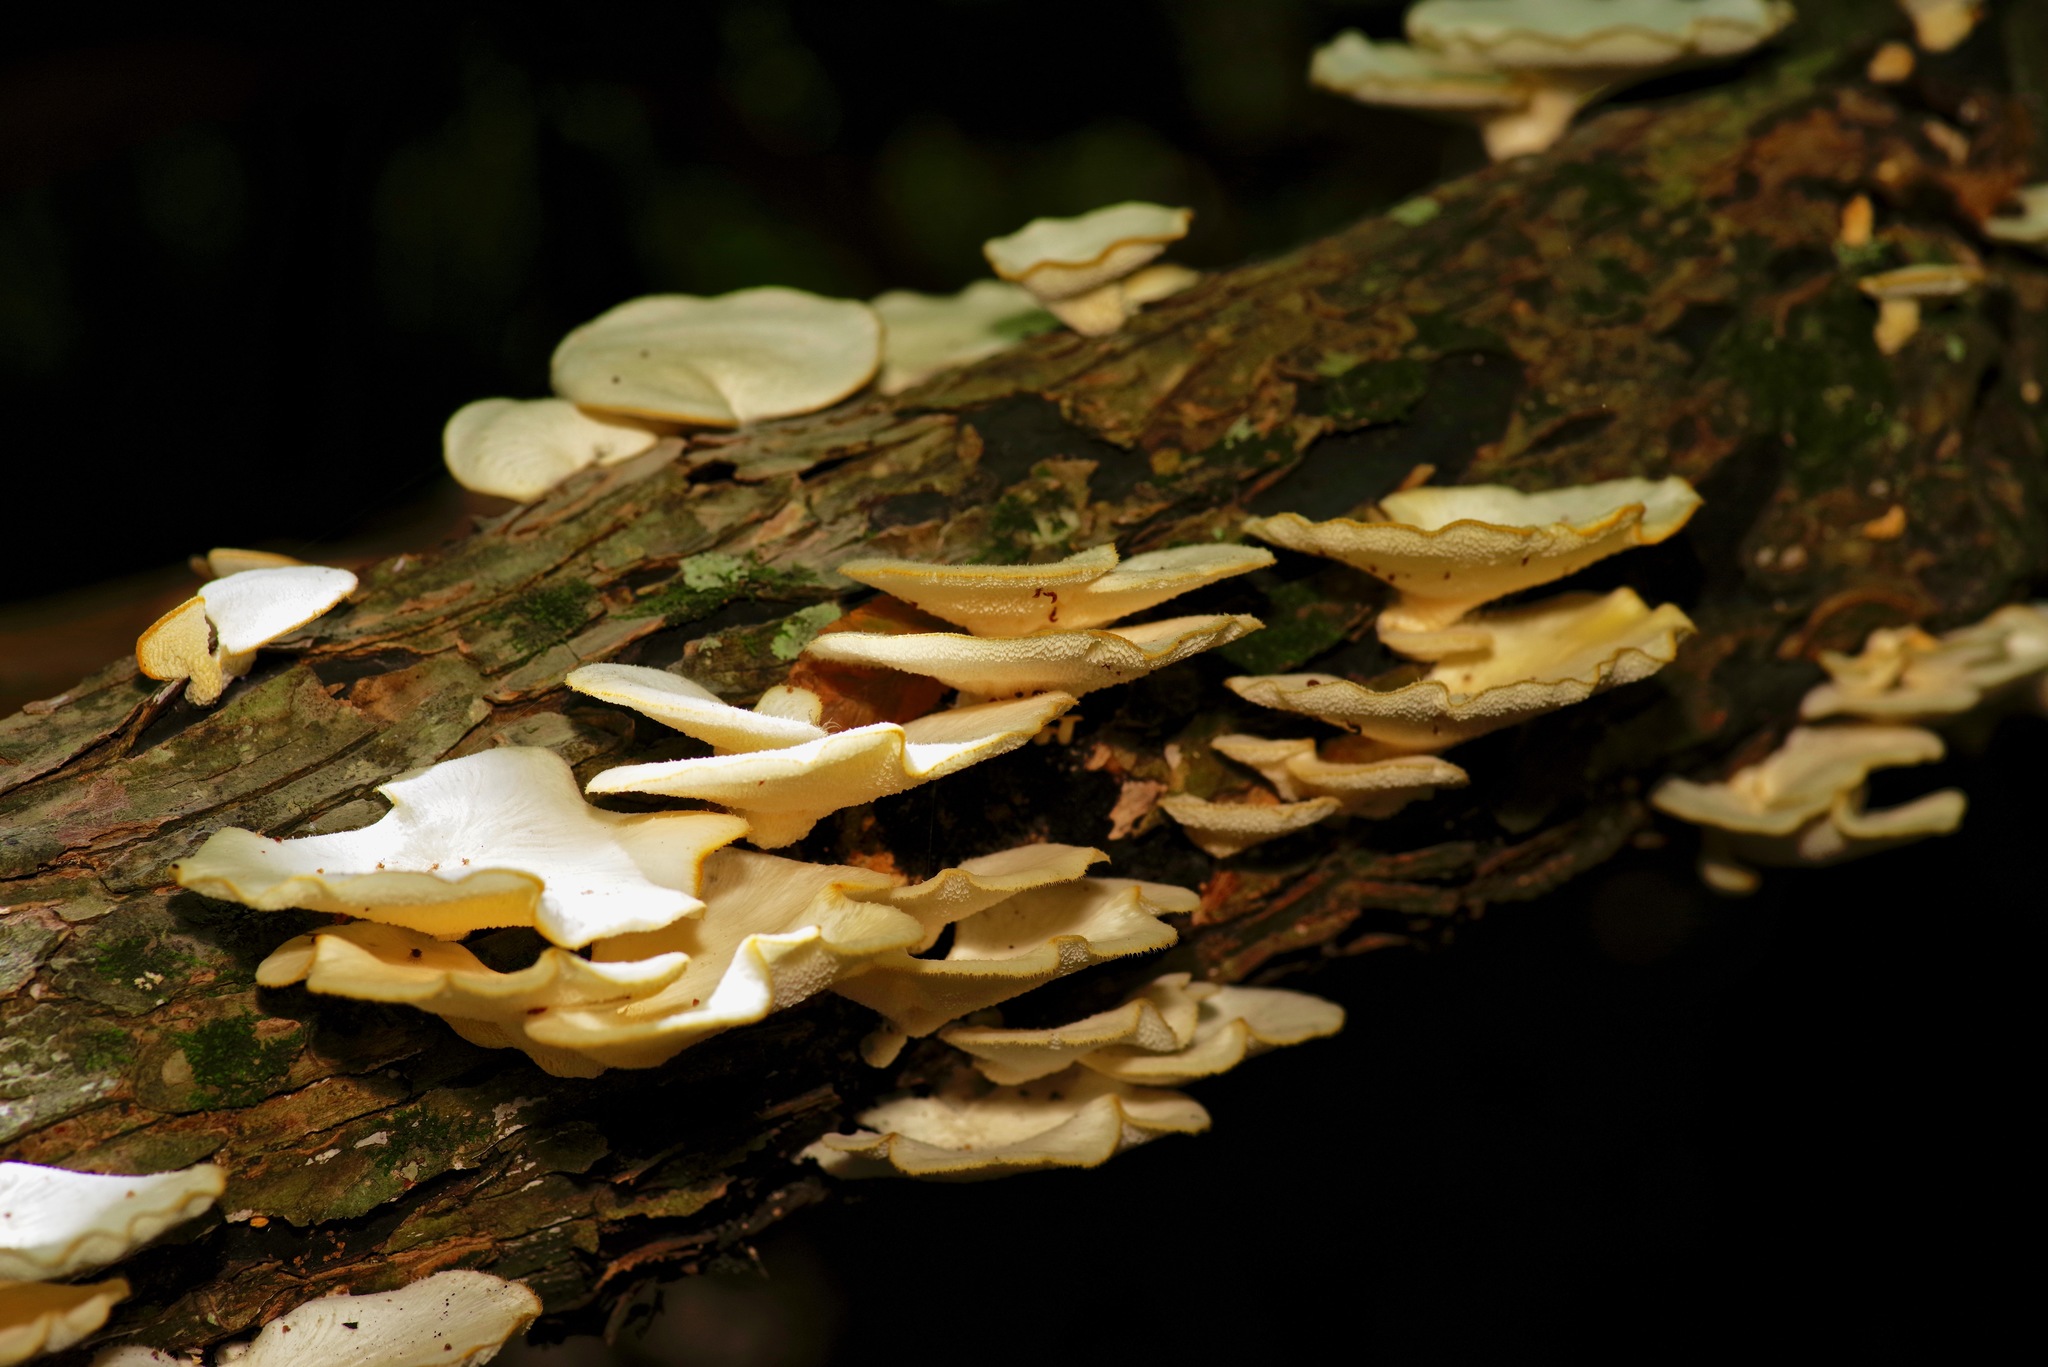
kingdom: Fungi
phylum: Basidiomycota
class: Agaricomycetes
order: Polyporales
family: Polyporaceae
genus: Favolus
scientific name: Favolus tenuiculus
